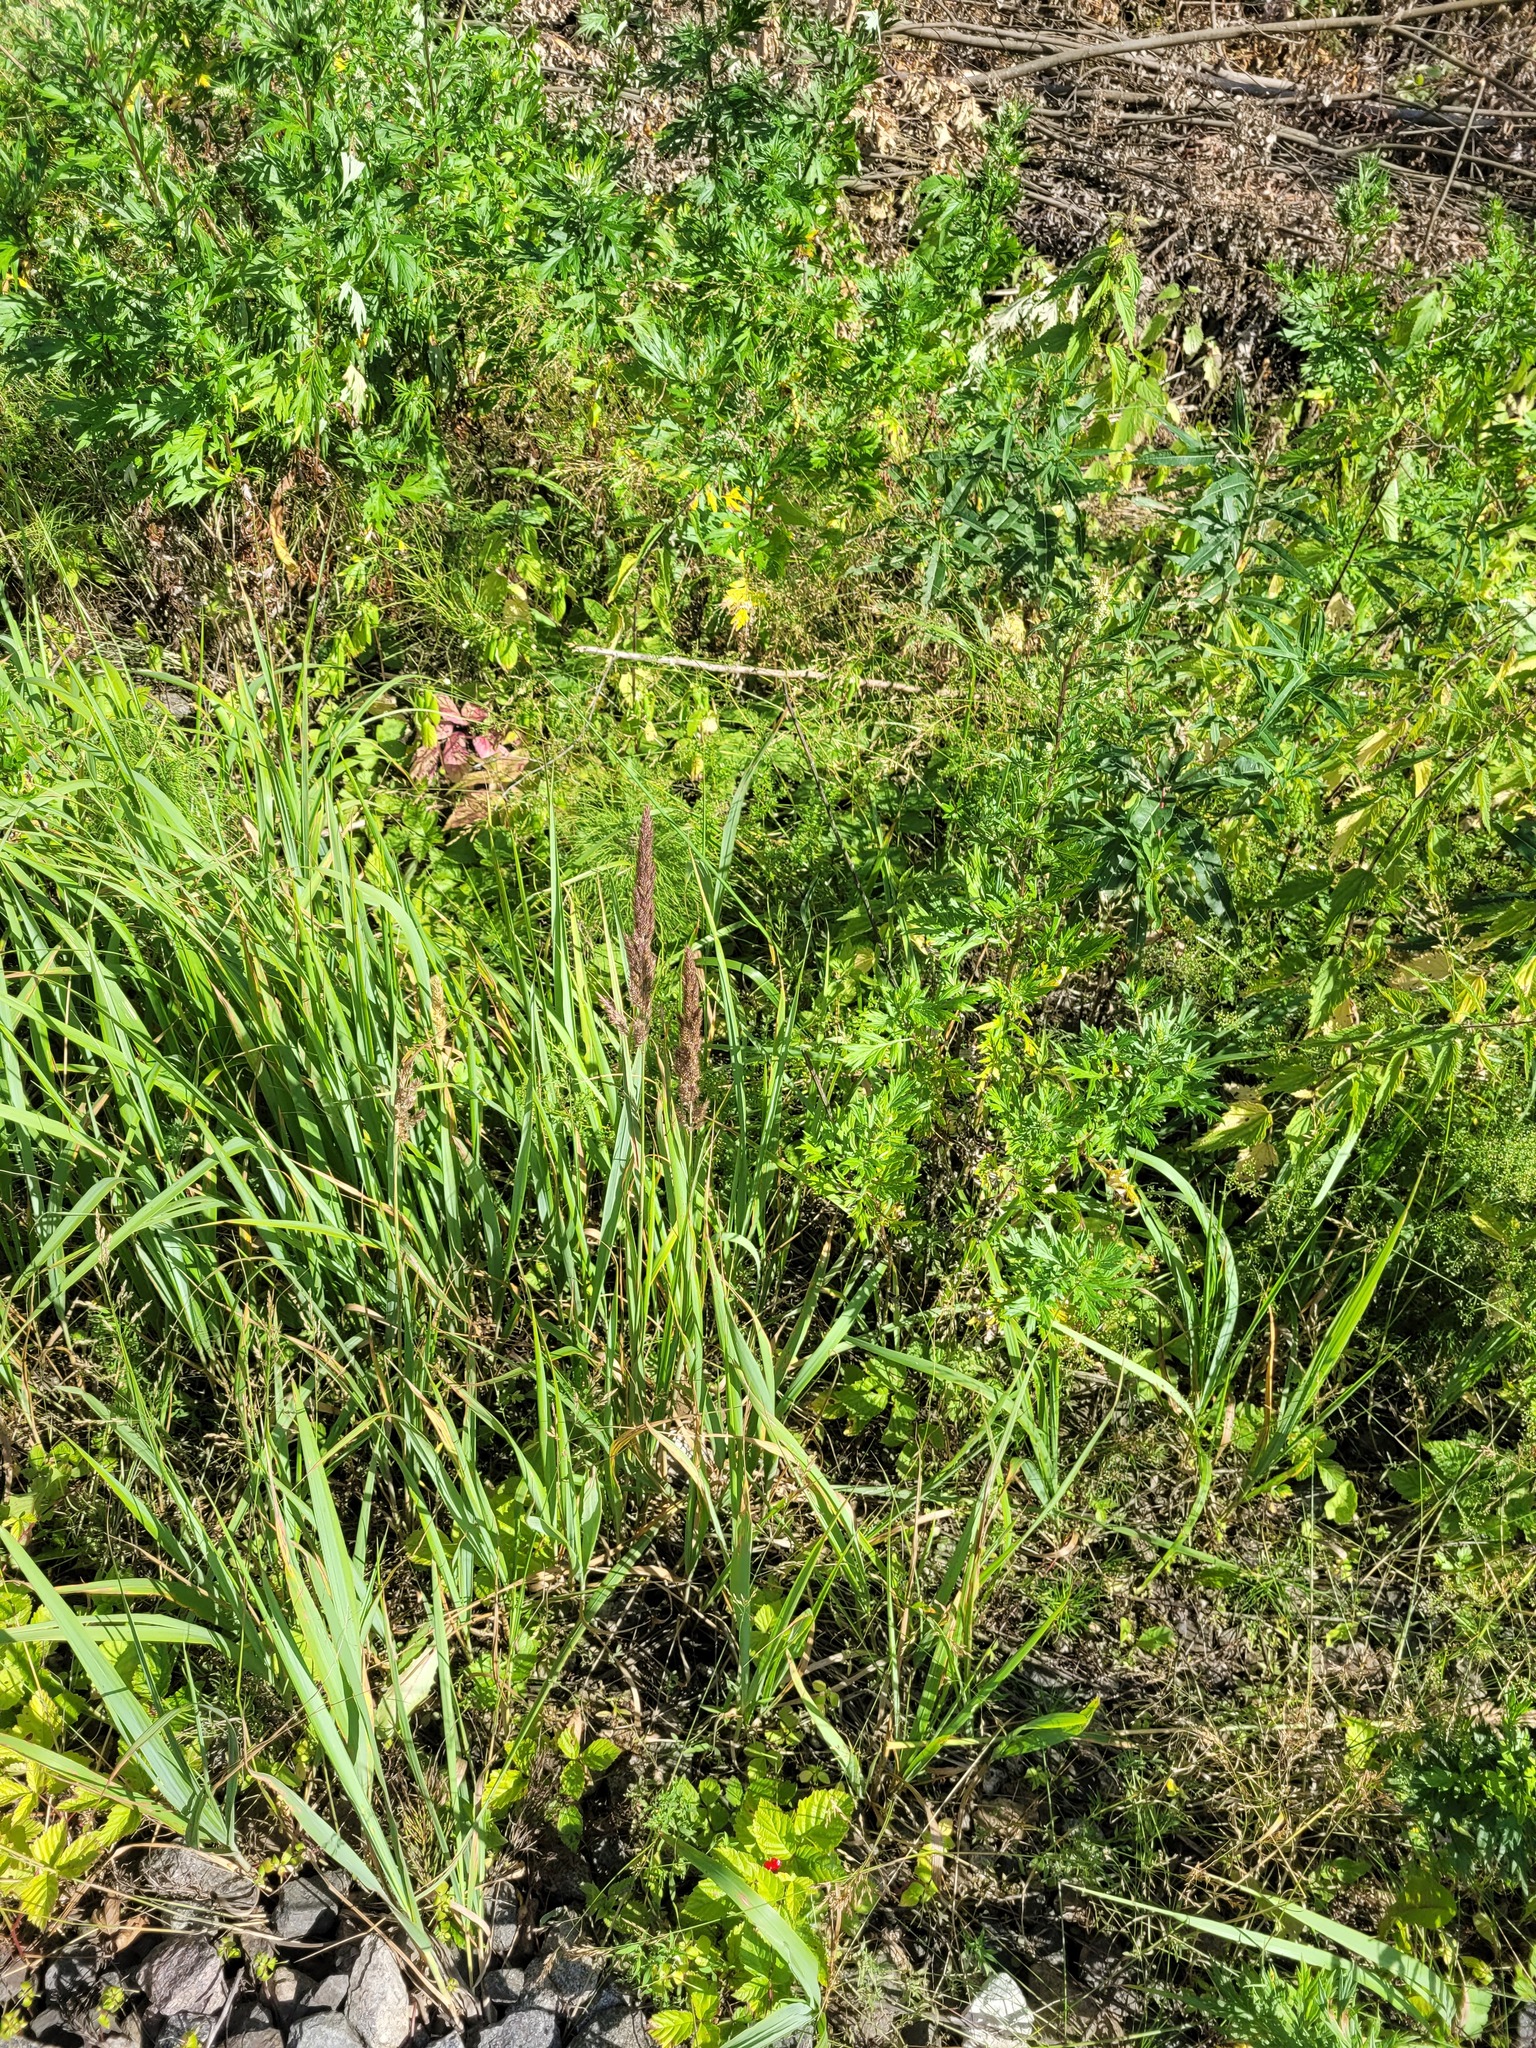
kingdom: Plantae
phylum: Tracheophyta
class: Liliopsida
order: Poales
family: Poaceae
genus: Calamagrostis
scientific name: Calamagrostis epigejos
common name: Wood small-reed
